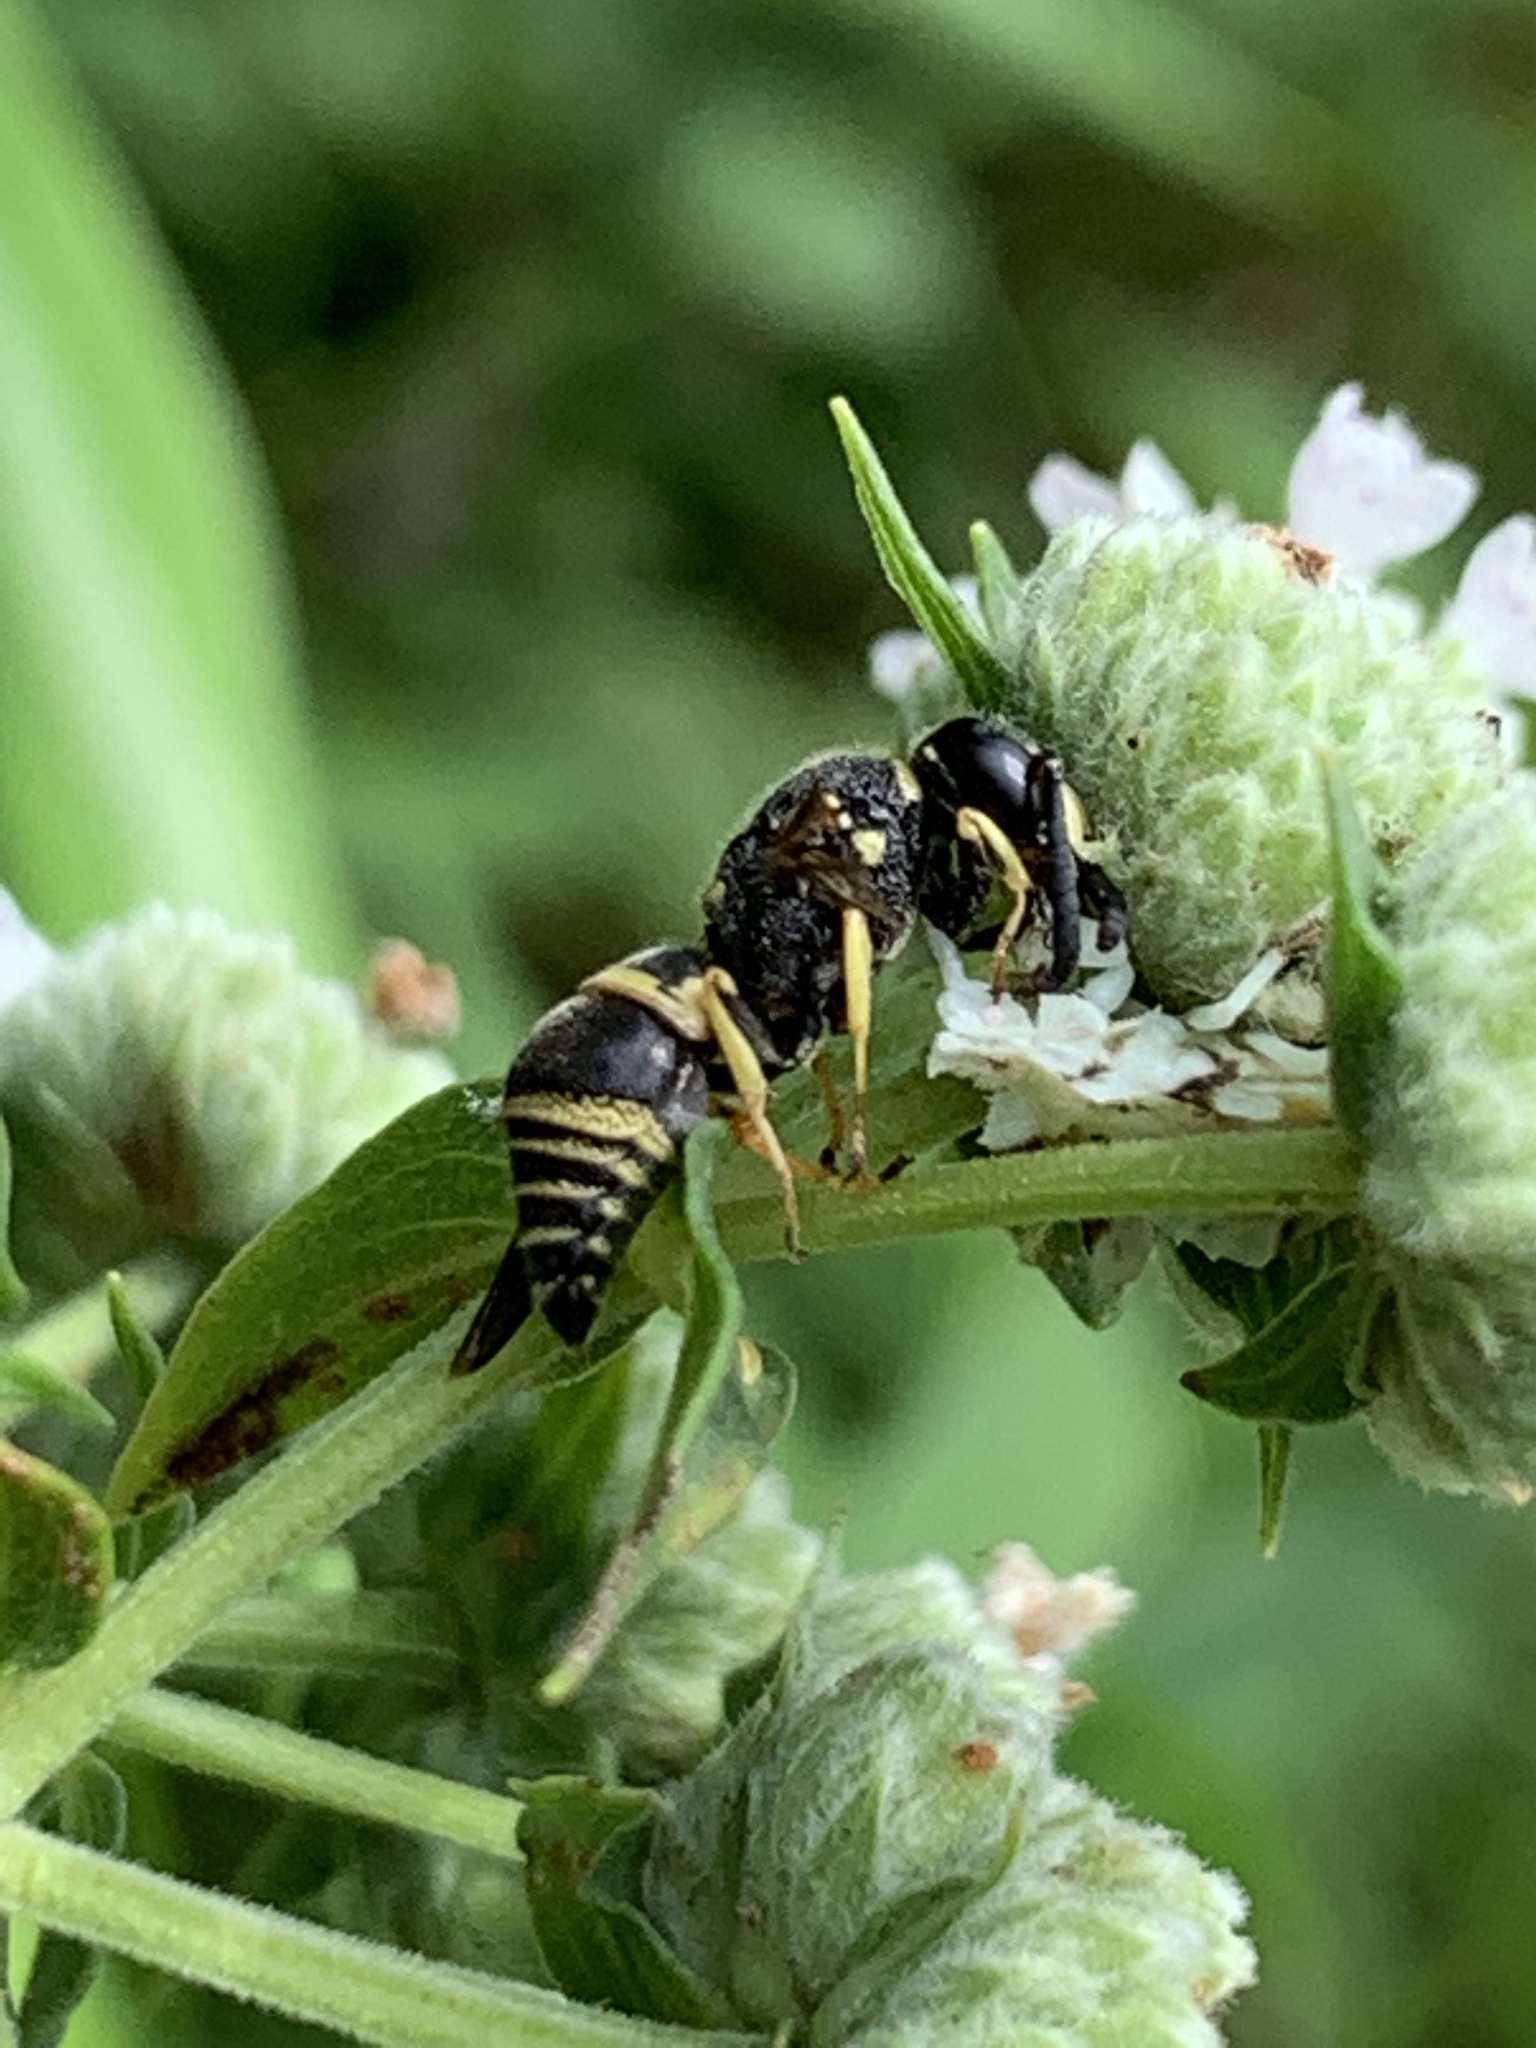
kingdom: Animalia
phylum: Arthropoda
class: Insecta
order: Hymenoptera
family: Eumenidae
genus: Euodynerus
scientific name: Euodynerus foraminatus
